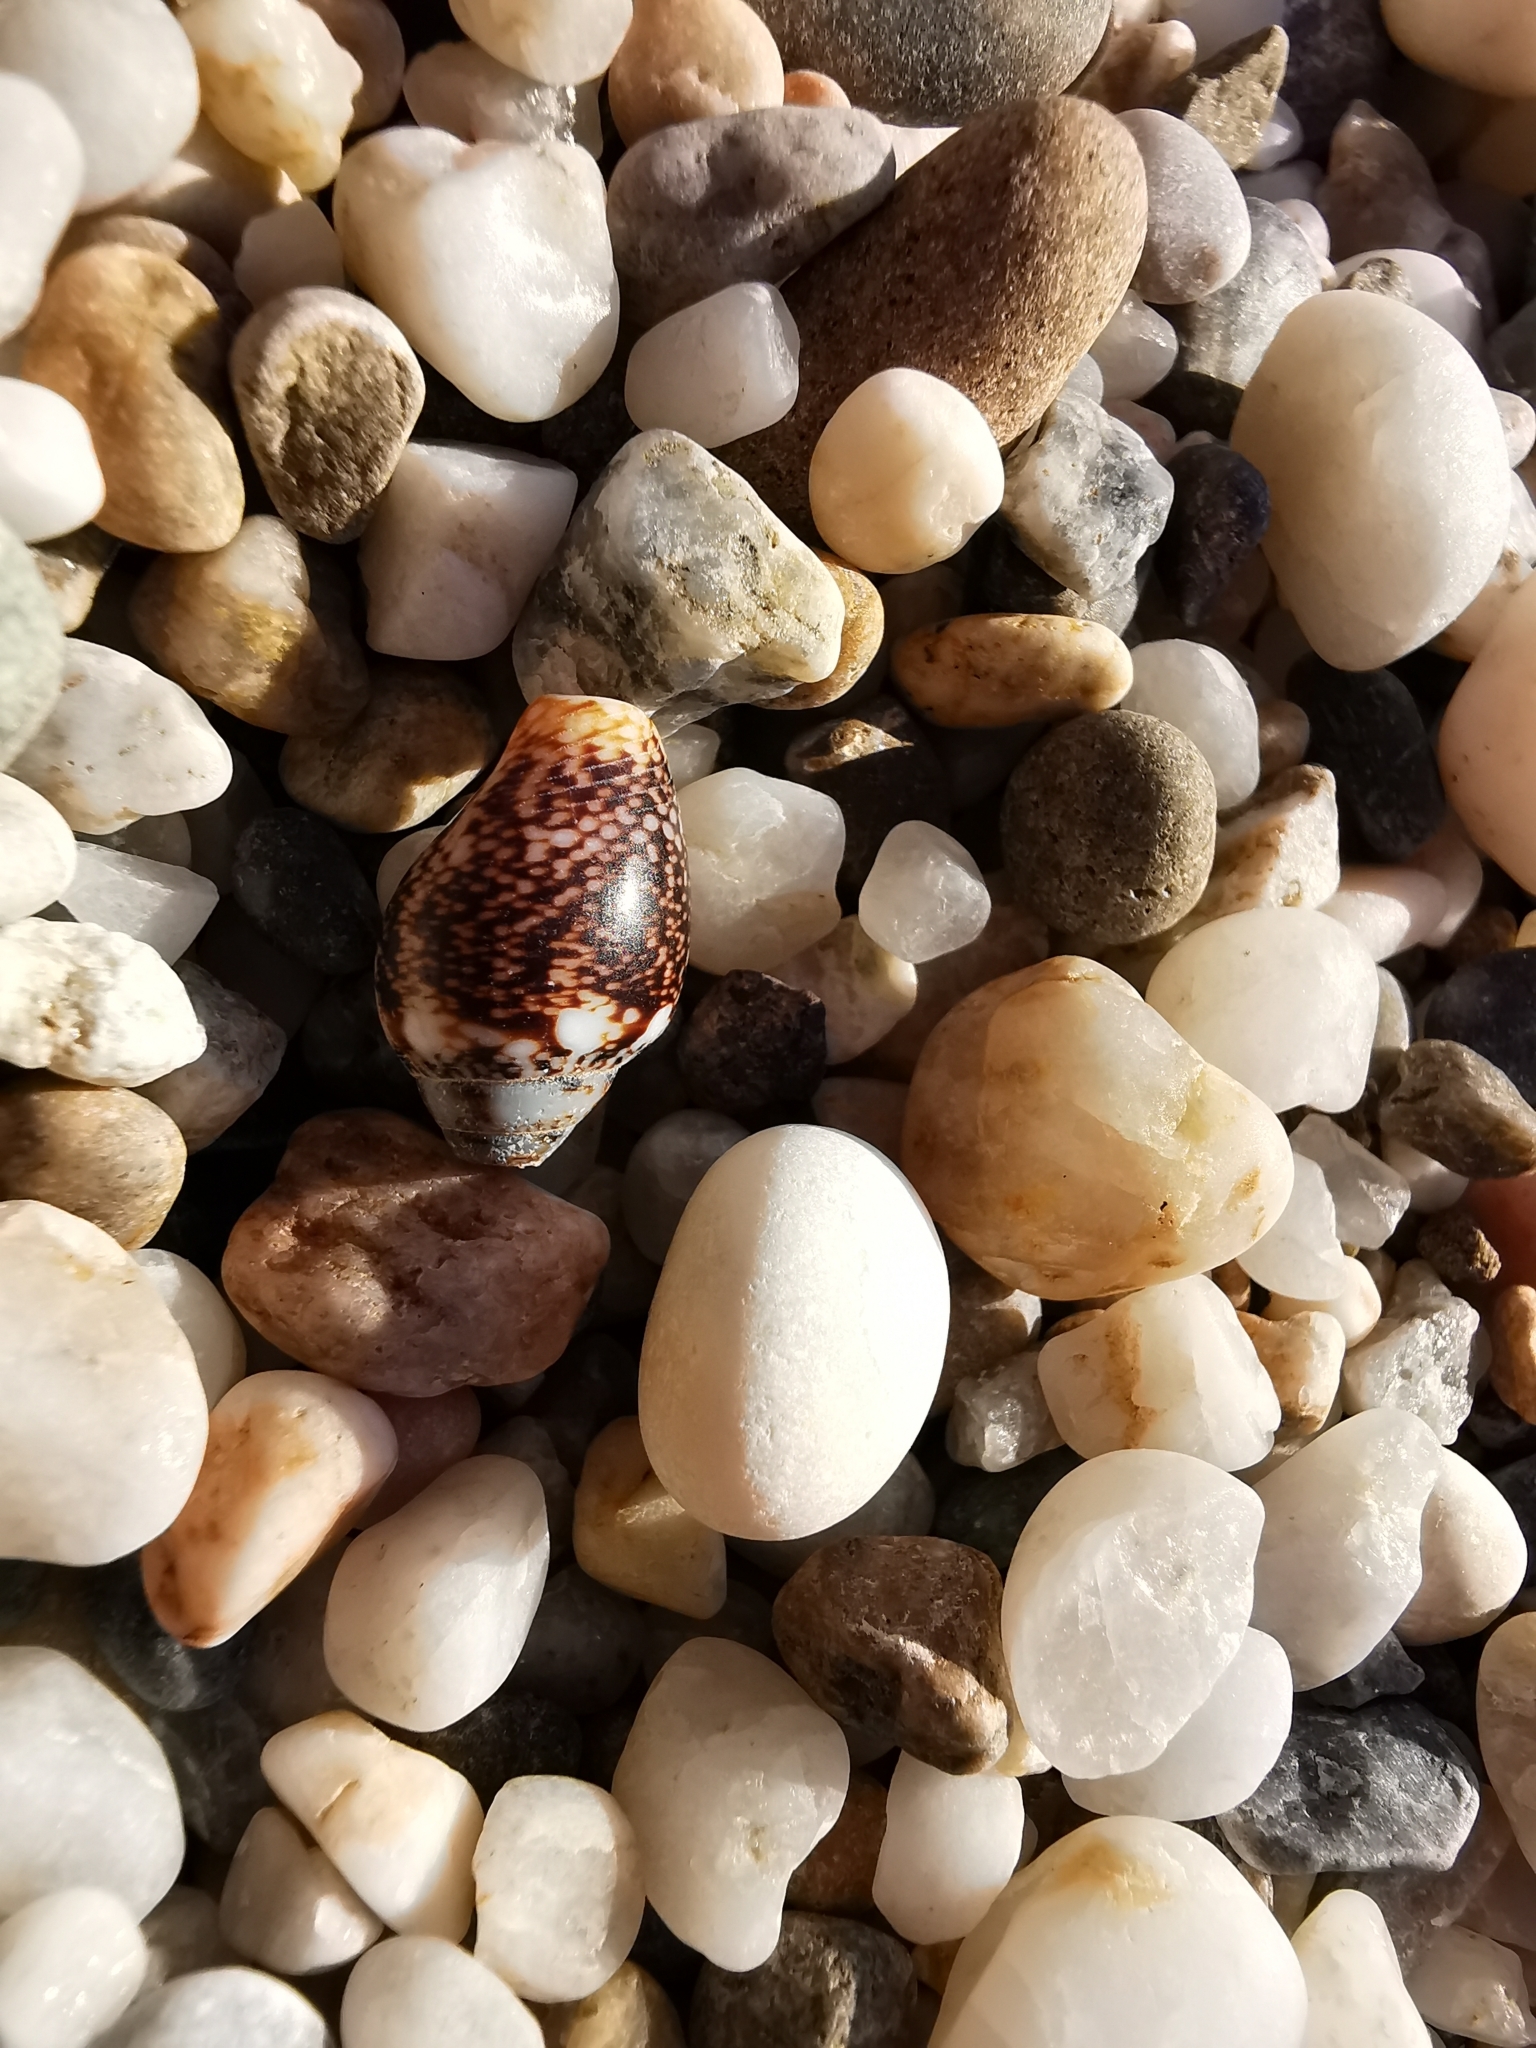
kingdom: Animalia
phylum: Mollusca
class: Gastropoda
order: Neogastropoda
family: Columbellidae
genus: Columbella
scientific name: Columbella rustica
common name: Rustic dove shell
